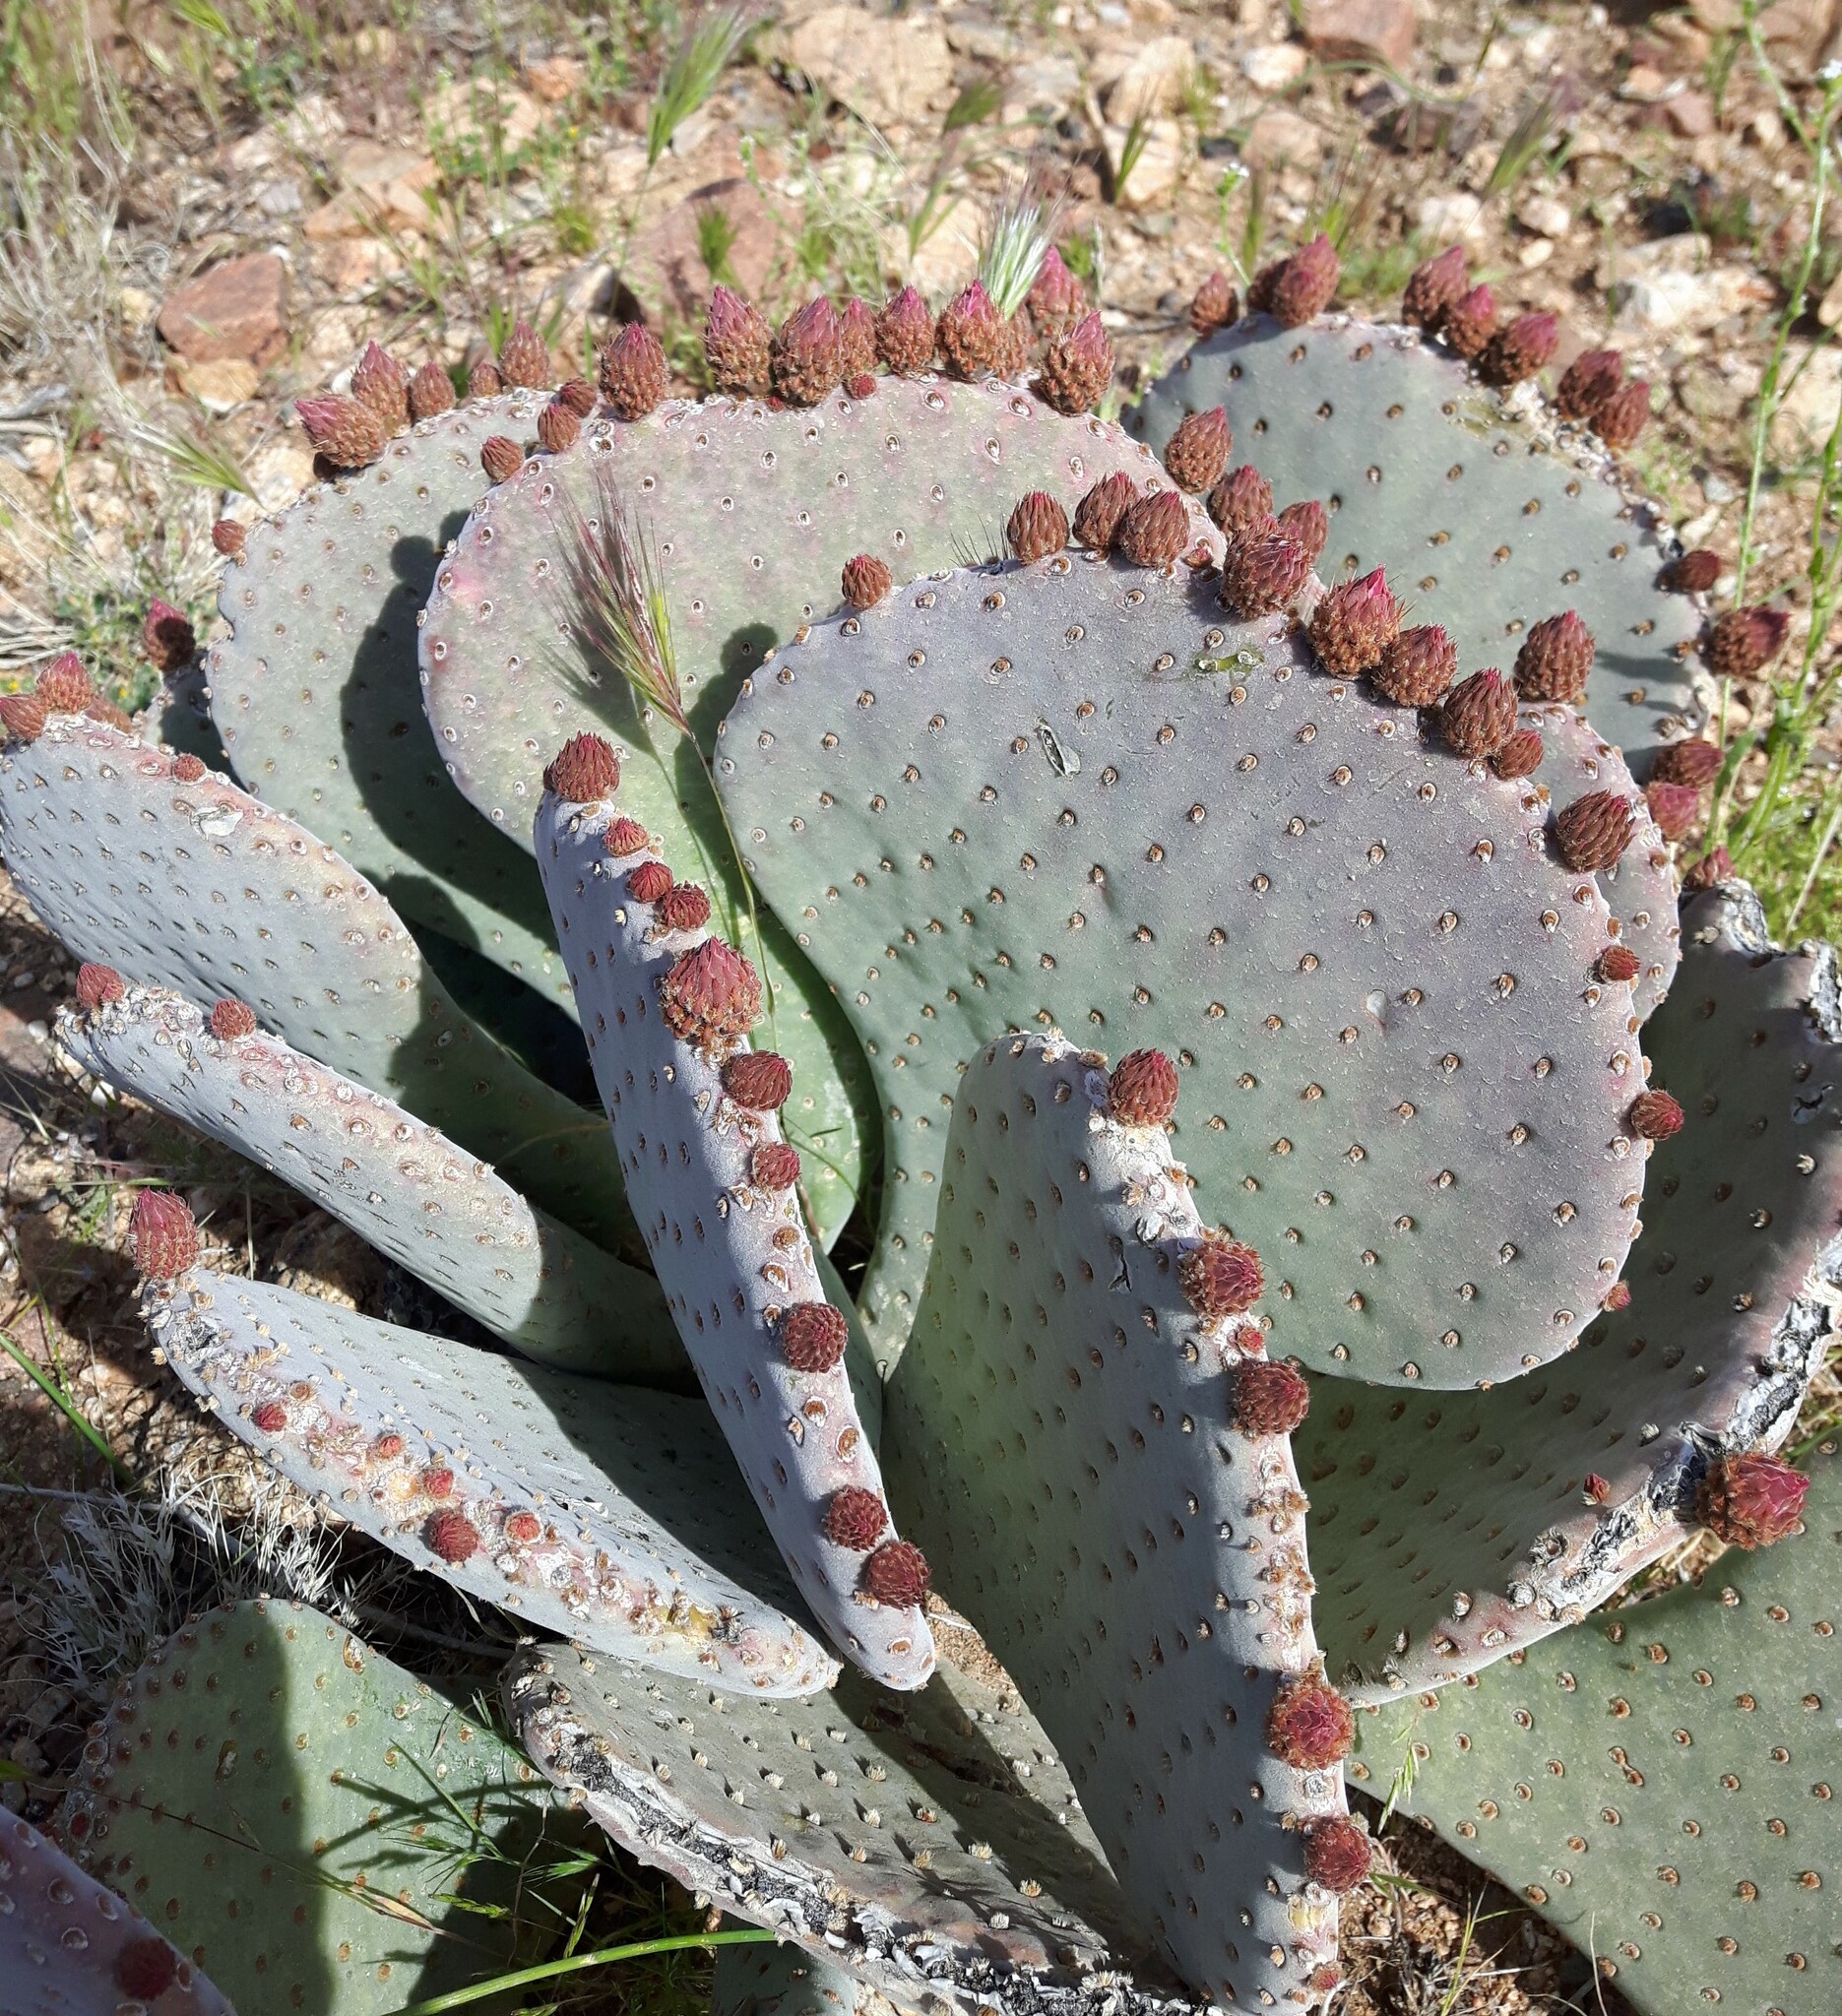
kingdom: Plantae
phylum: Tracheophyta
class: Magnoliopsida
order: Caryophyllales
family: Cactaceae
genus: Opuntia
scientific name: Opuntia basilaris
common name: Beavertail prickly-pear
